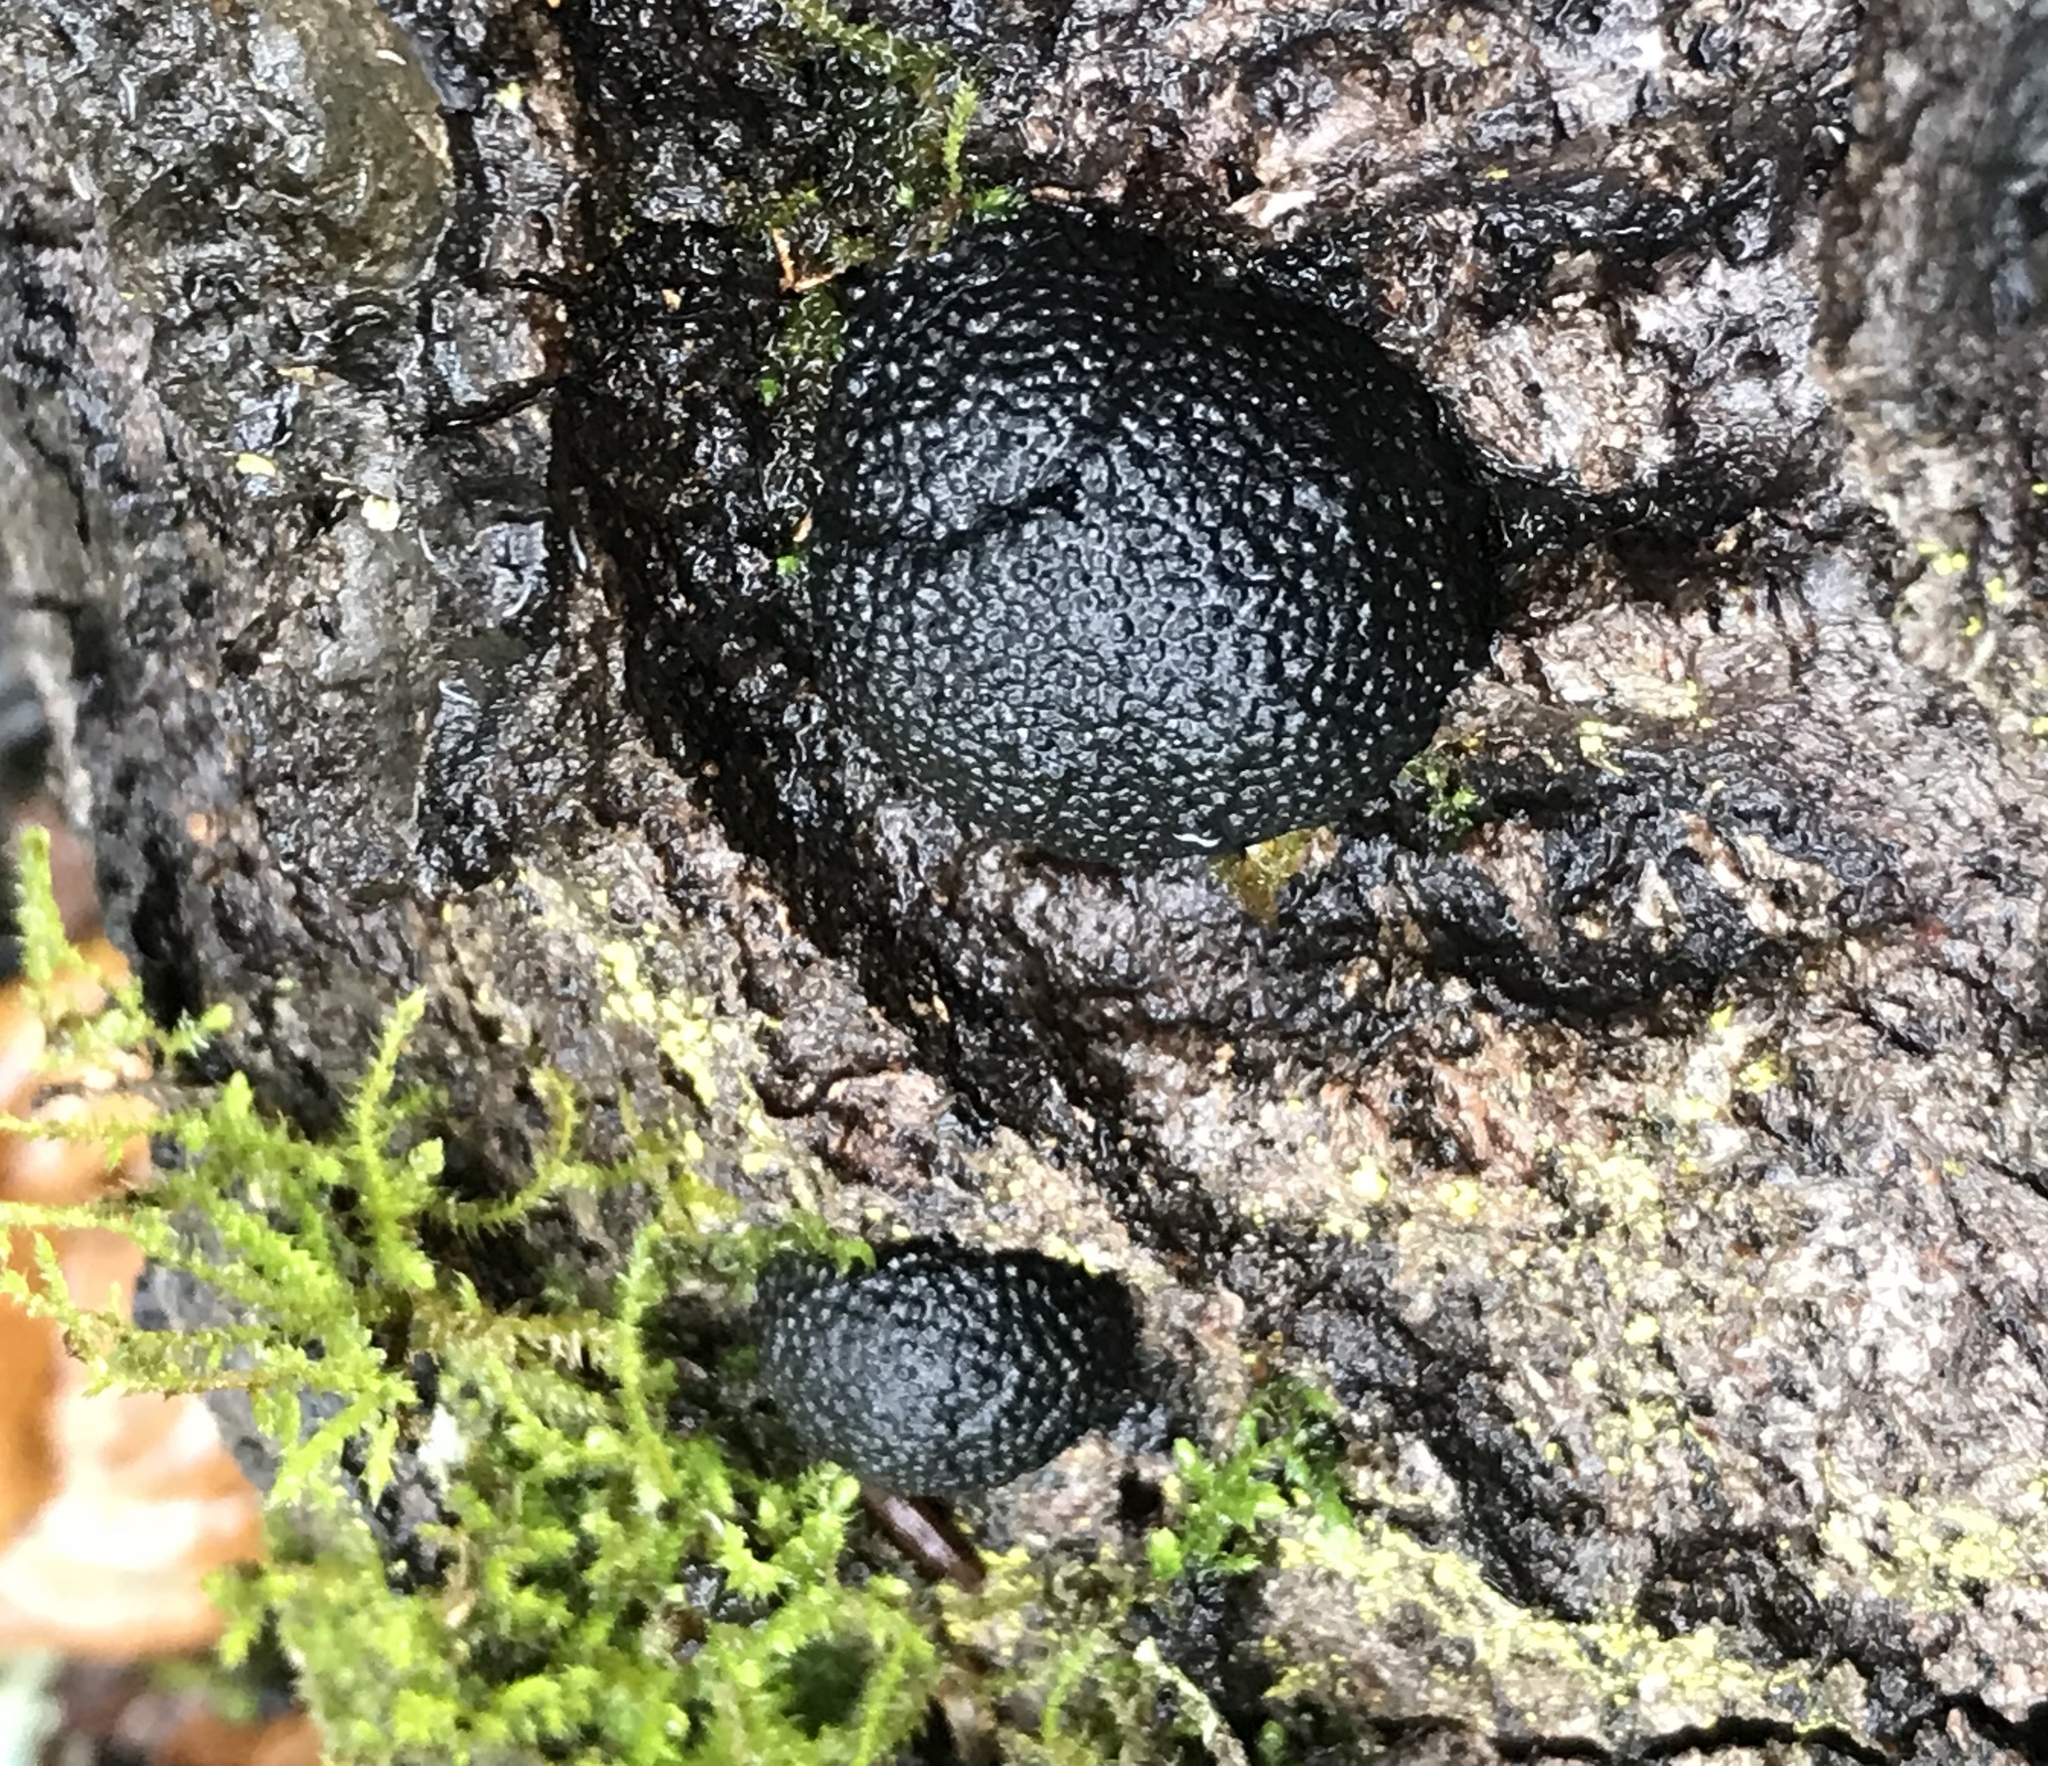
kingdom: Fungi
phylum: Ascomycota
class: Sordariomycetes
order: Xylariales
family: Hypoxylaceae
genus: Annulohypoxylon
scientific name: Annulohypoxylon thouarsianum
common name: Cramp balls
